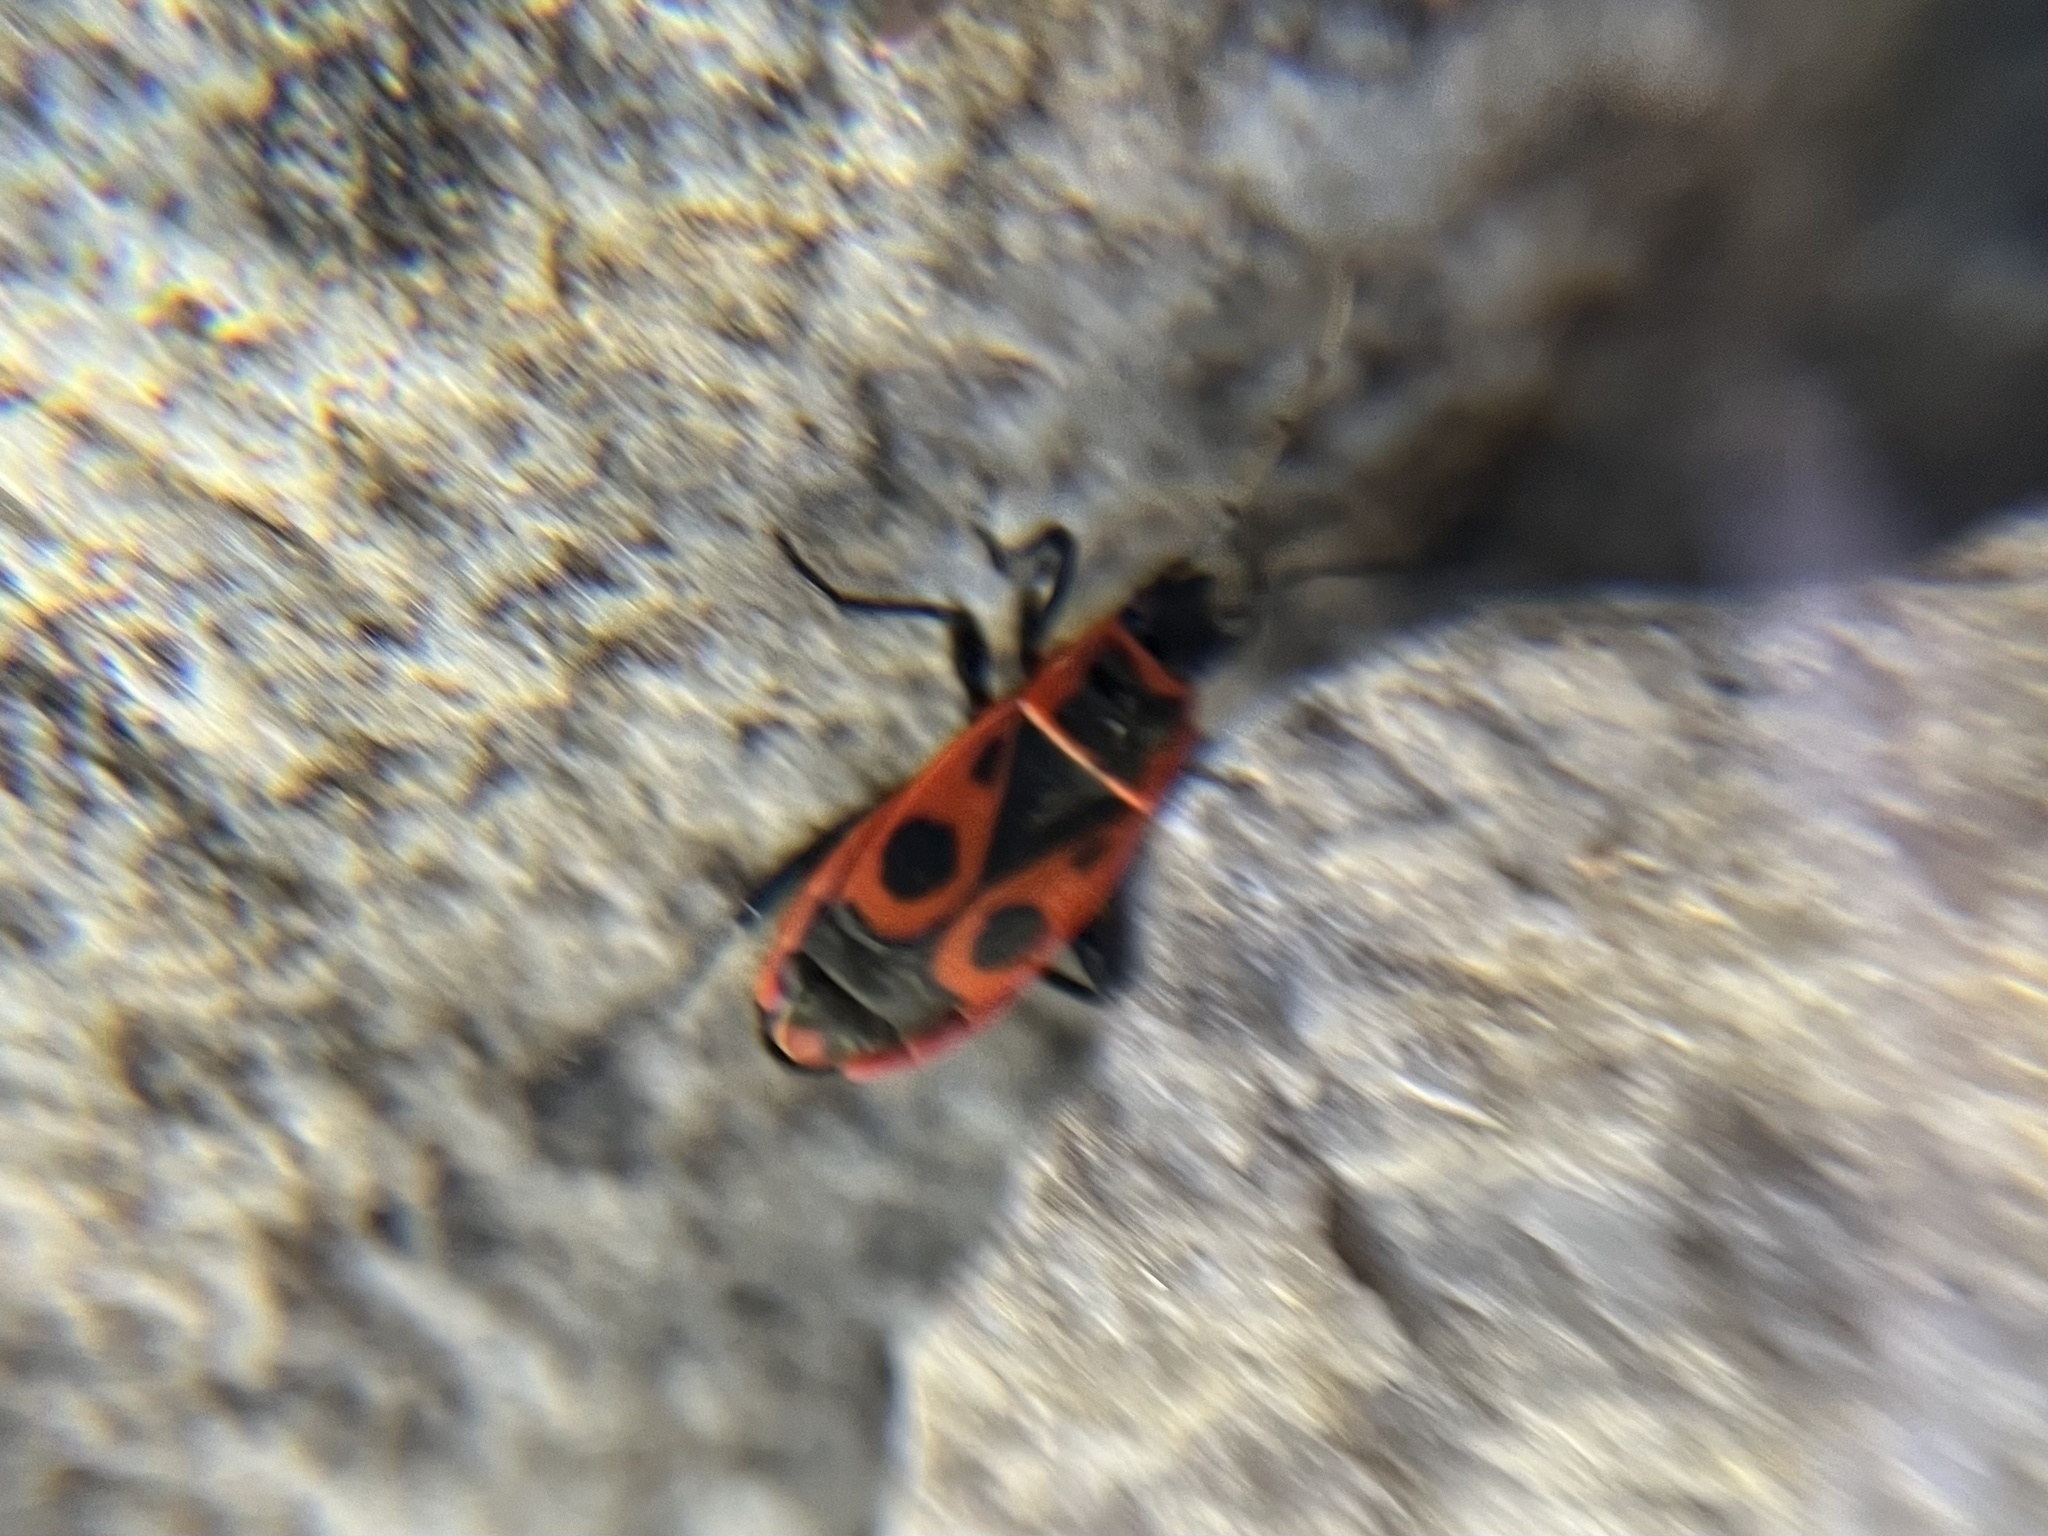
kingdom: Animalia
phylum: Arthropoda
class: Insecta
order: Hemiptera
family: Pyrrhocoridae
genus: Pyrrhocoris
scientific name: Pyrrhocoris apterus
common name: Firebug
